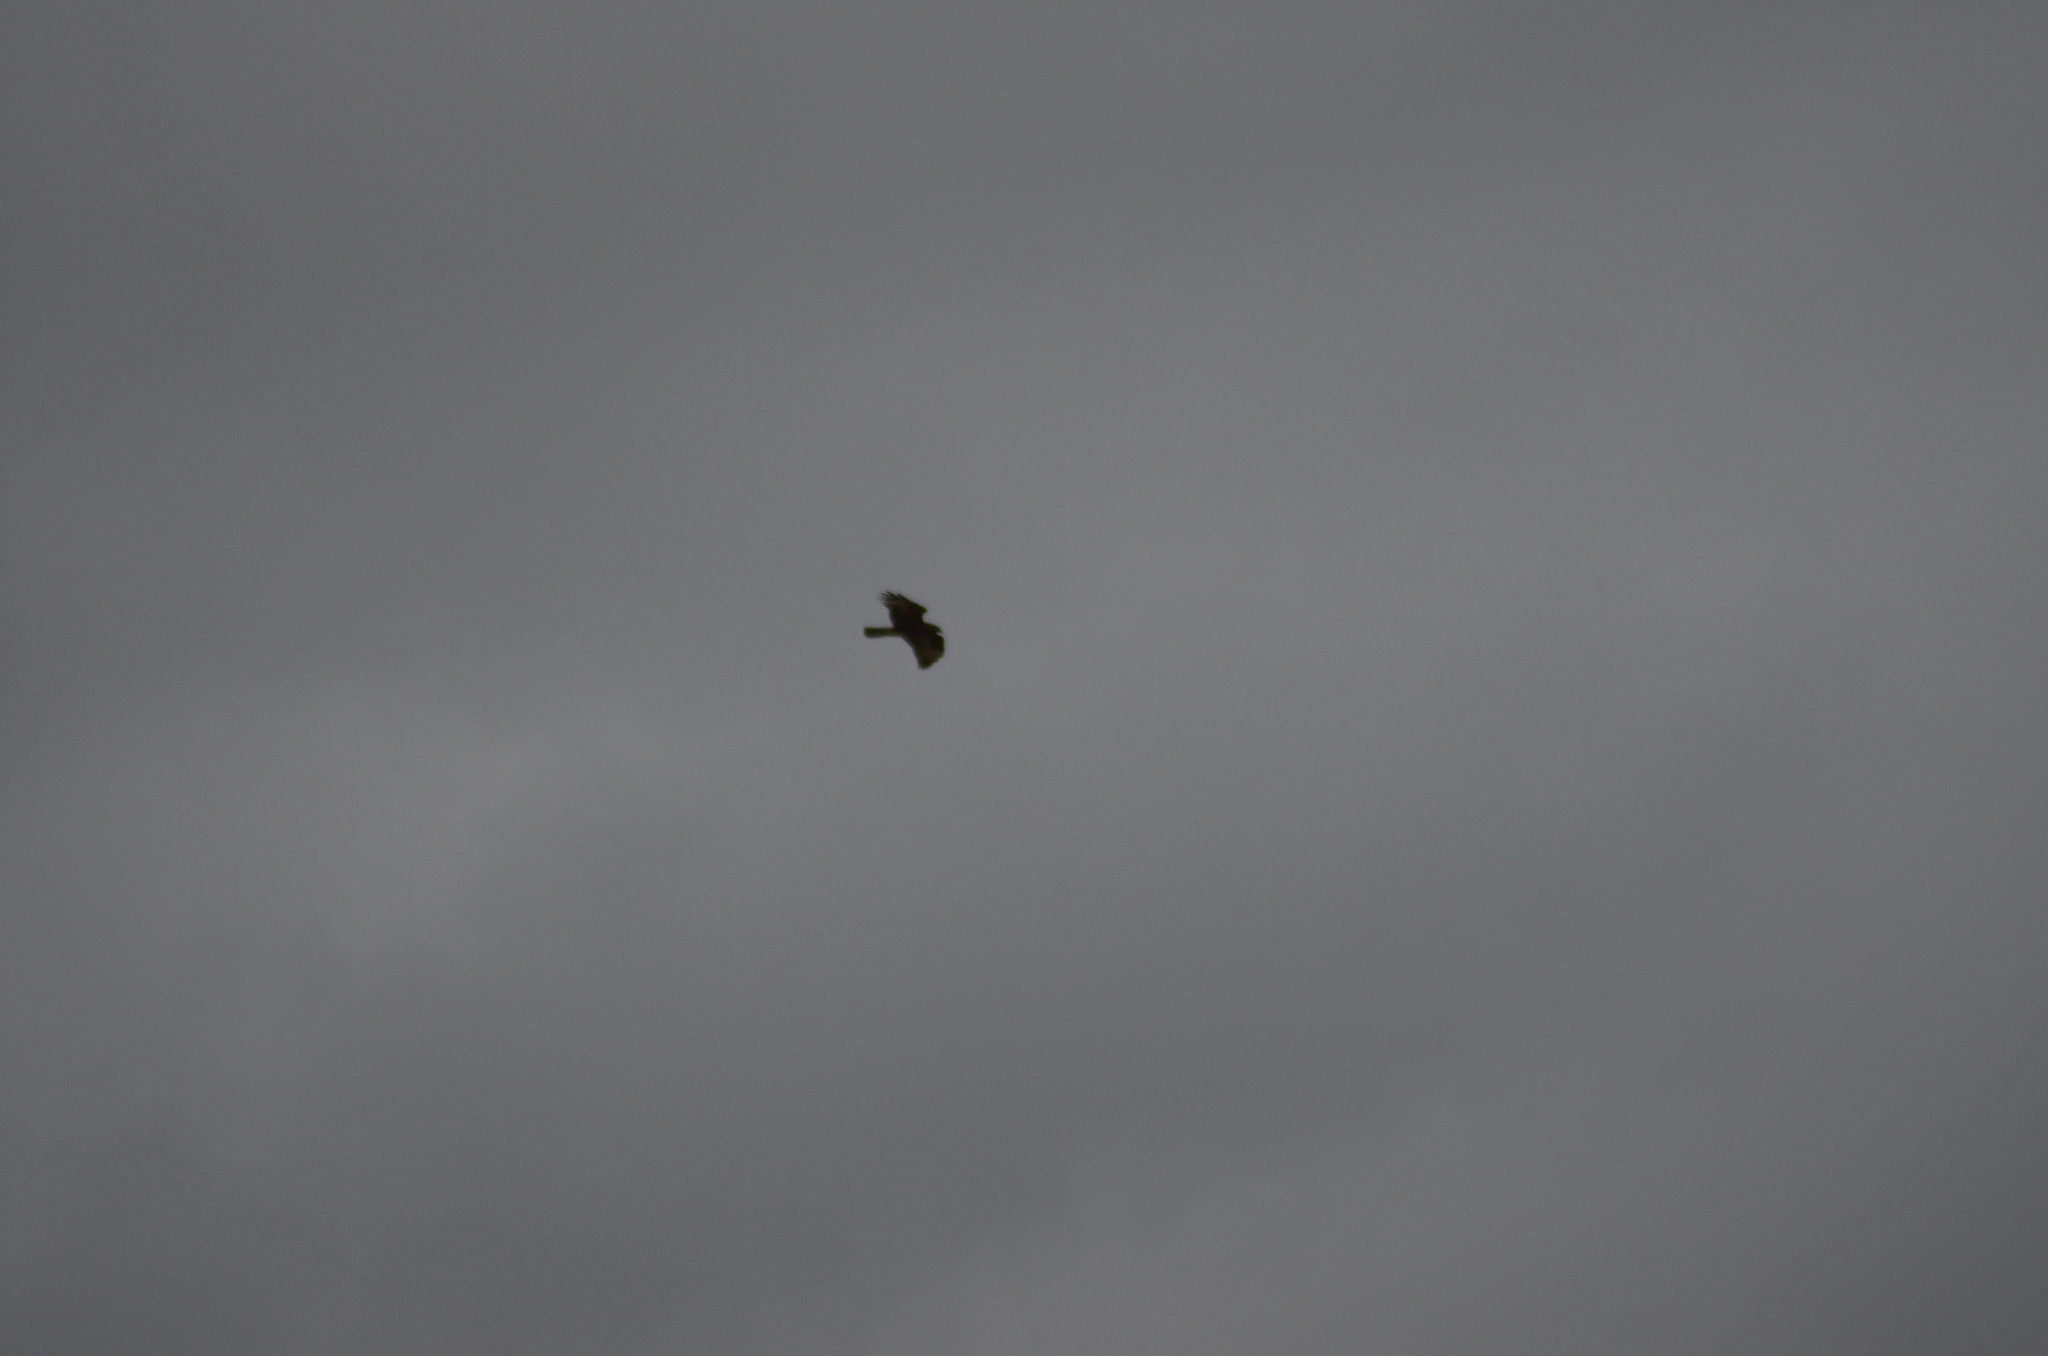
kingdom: Animalia
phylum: Chordata
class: Aves
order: Accipitriformes
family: Accipitridae
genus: Buteo
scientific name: Buteo buteo
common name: Common buzzard
